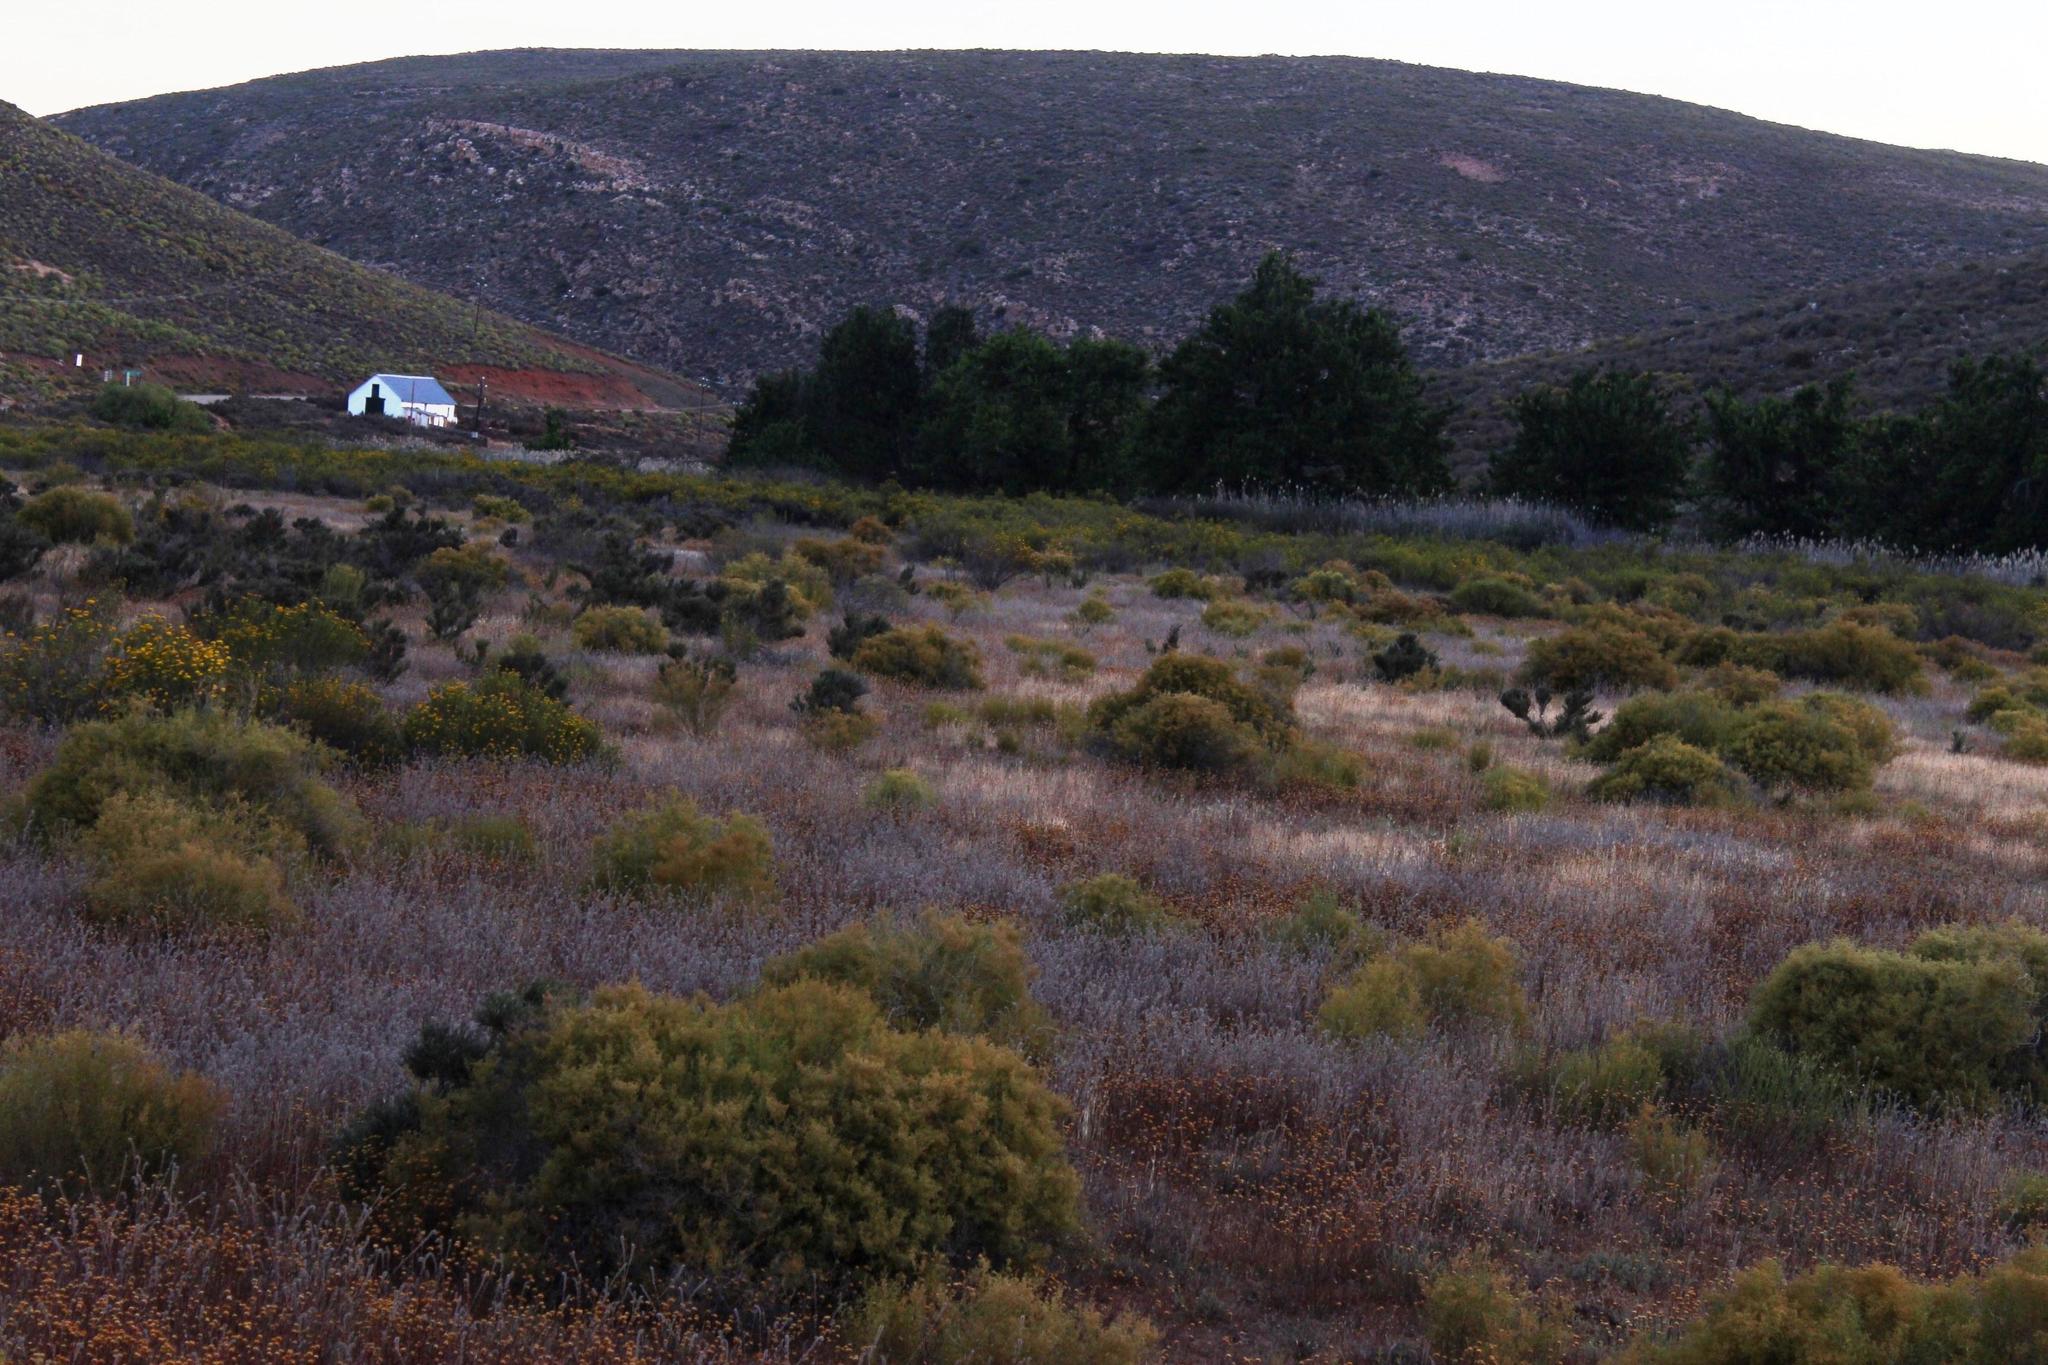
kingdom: Plantae
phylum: Tracheophyta
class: Magnoliopsida
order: Caryophyllales
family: Aizoaceae
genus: Aizoon
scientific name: Aizoon africanum
